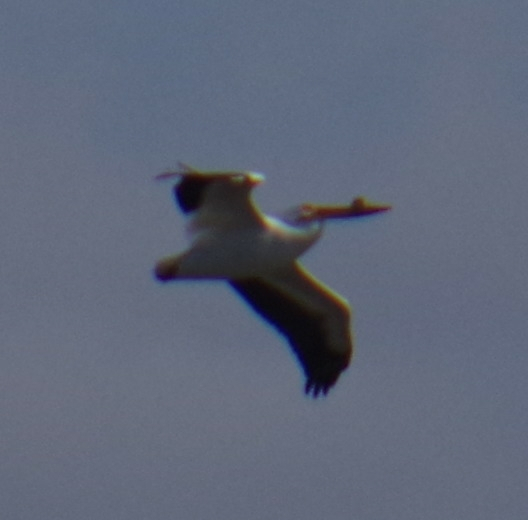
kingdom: Animalia
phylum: Chordata
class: Aves
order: Pelecaniformes
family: Pelecanidae
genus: Pelecanus
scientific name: Pelecanus erythrorhynchos
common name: American white pelican
